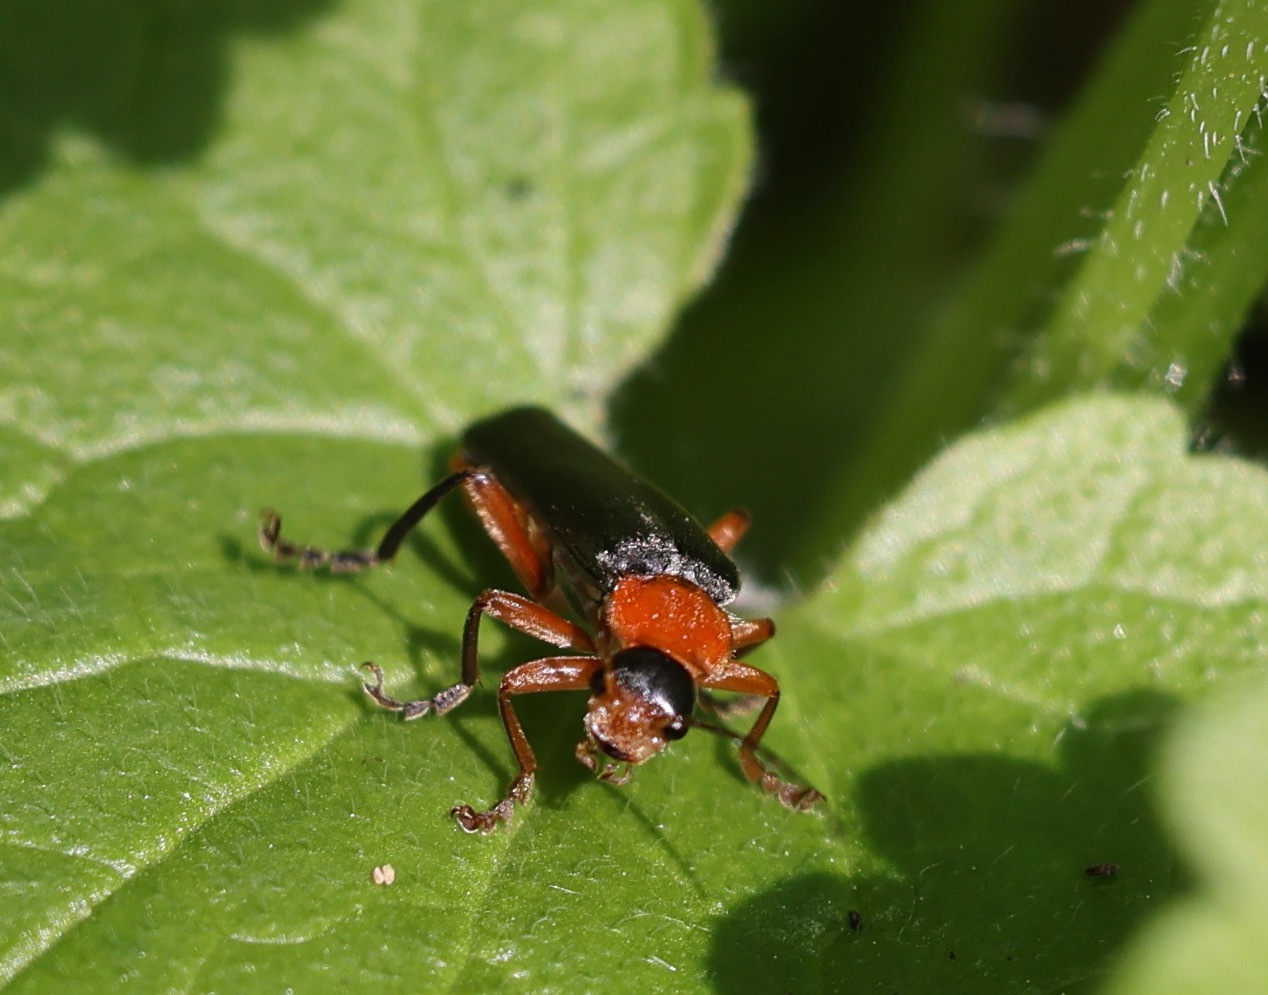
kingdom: Animalia
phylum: Arthropoda
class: Insecta
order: Coleoptera
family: Cantharidae
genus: Cantharis
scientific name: Cantharis pellucida
